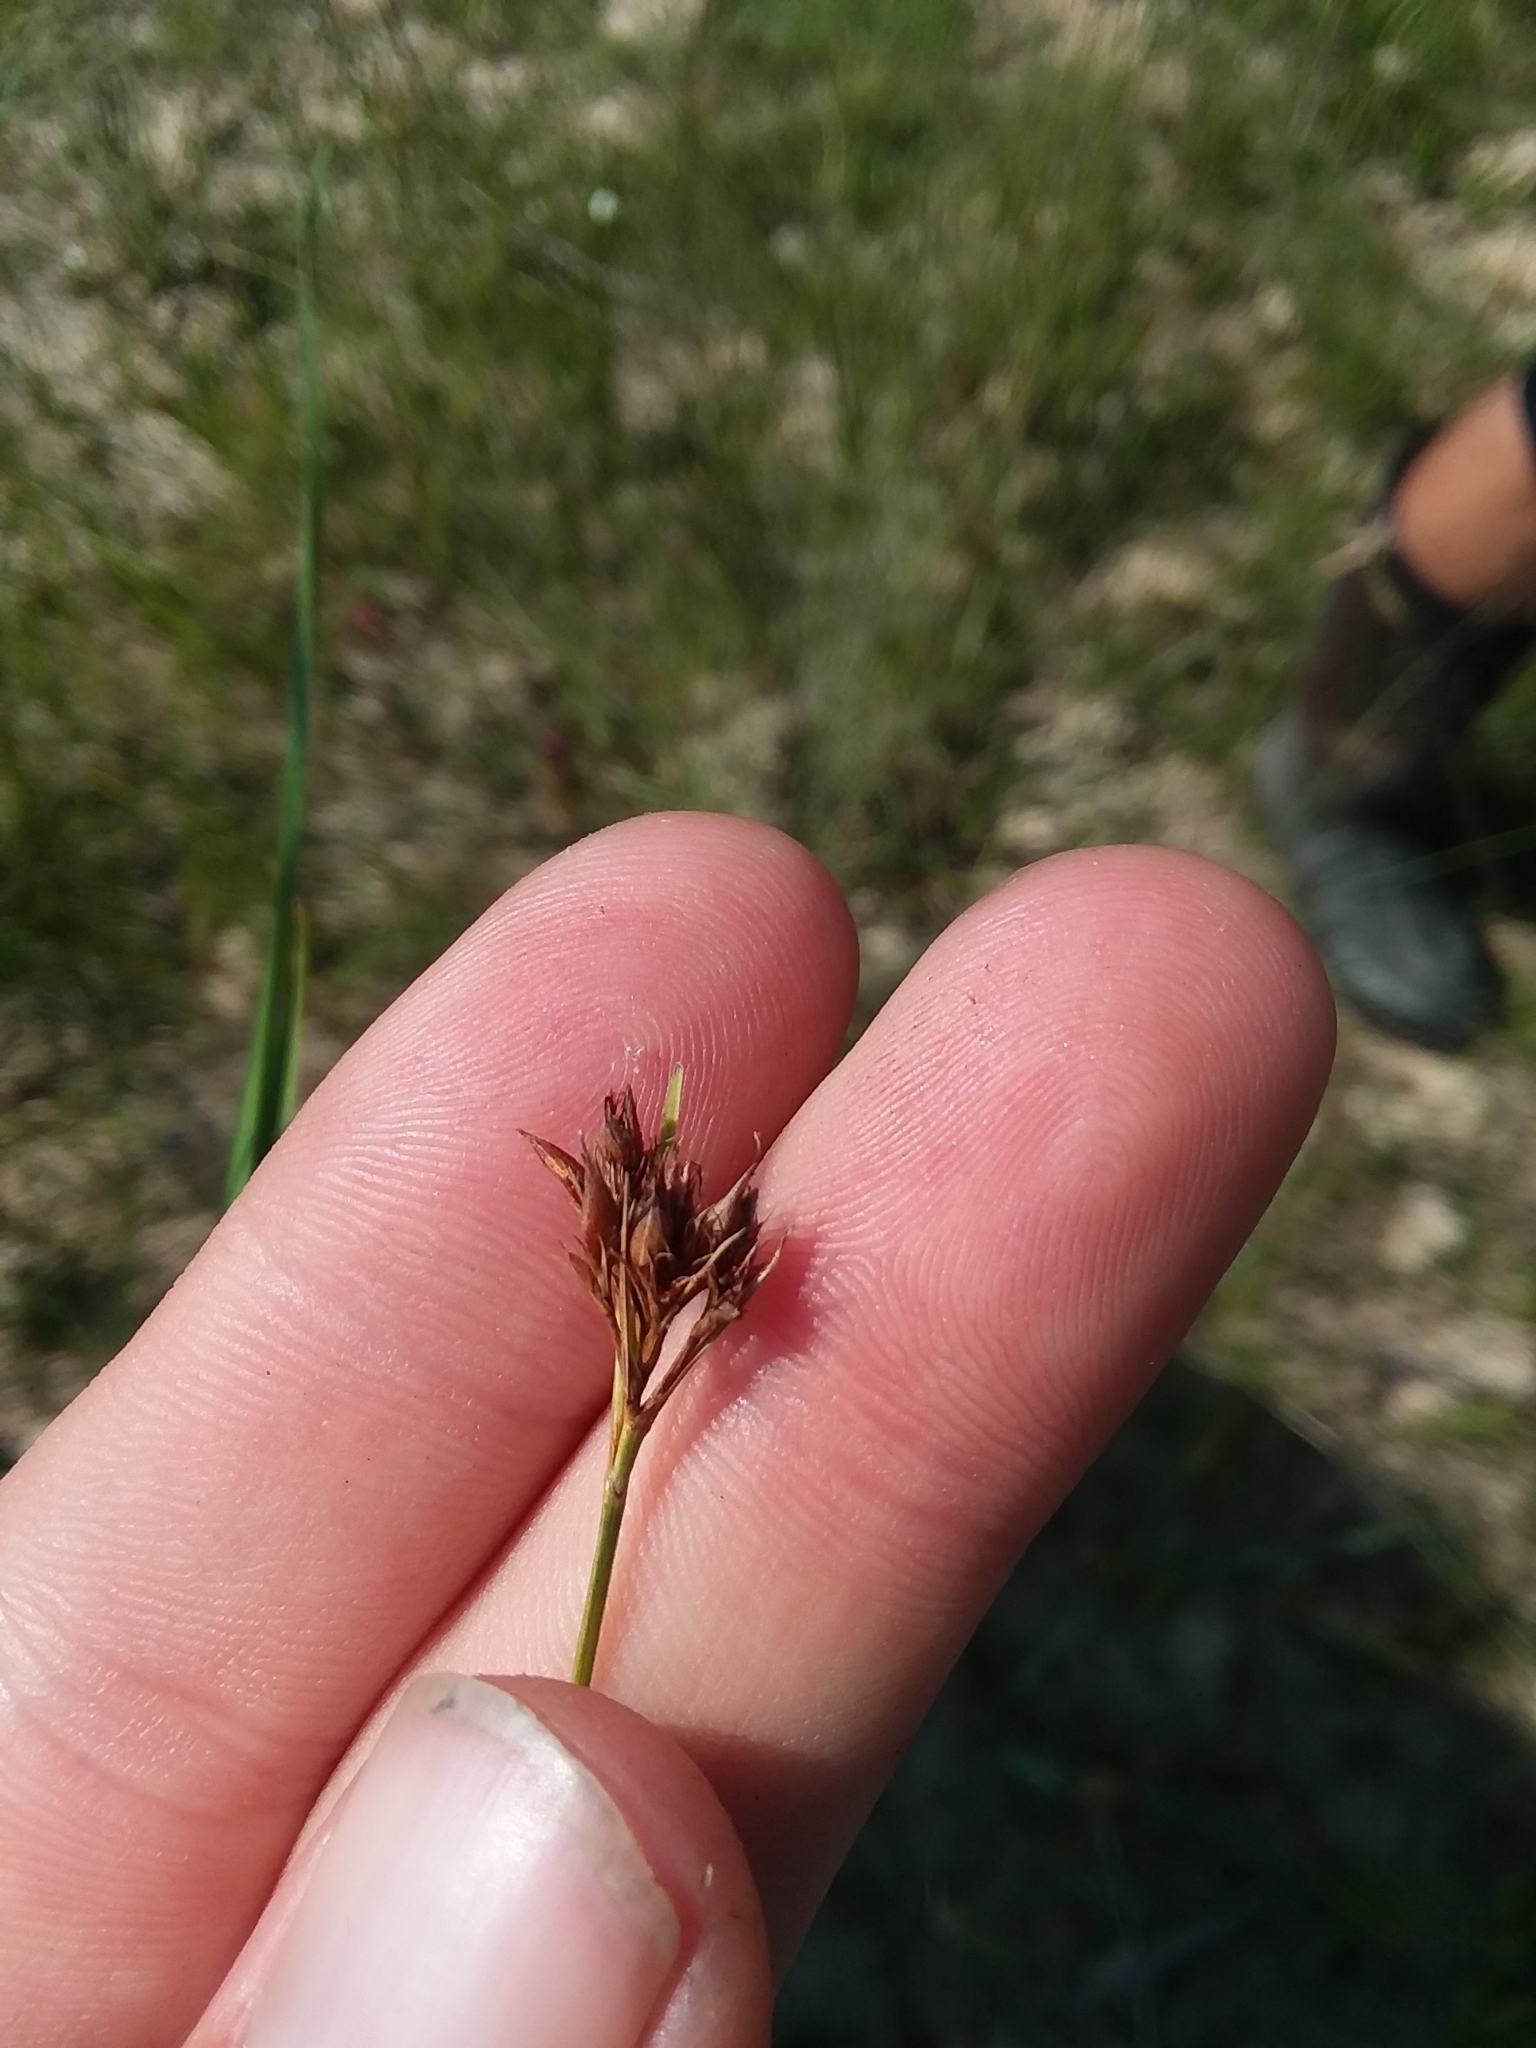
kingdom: Plantae
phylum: Tracheophyta
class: Liliopsida
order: Poales
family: Cyperaceae
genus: Rhynchospora
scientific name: Rhynchospora baldwinii
